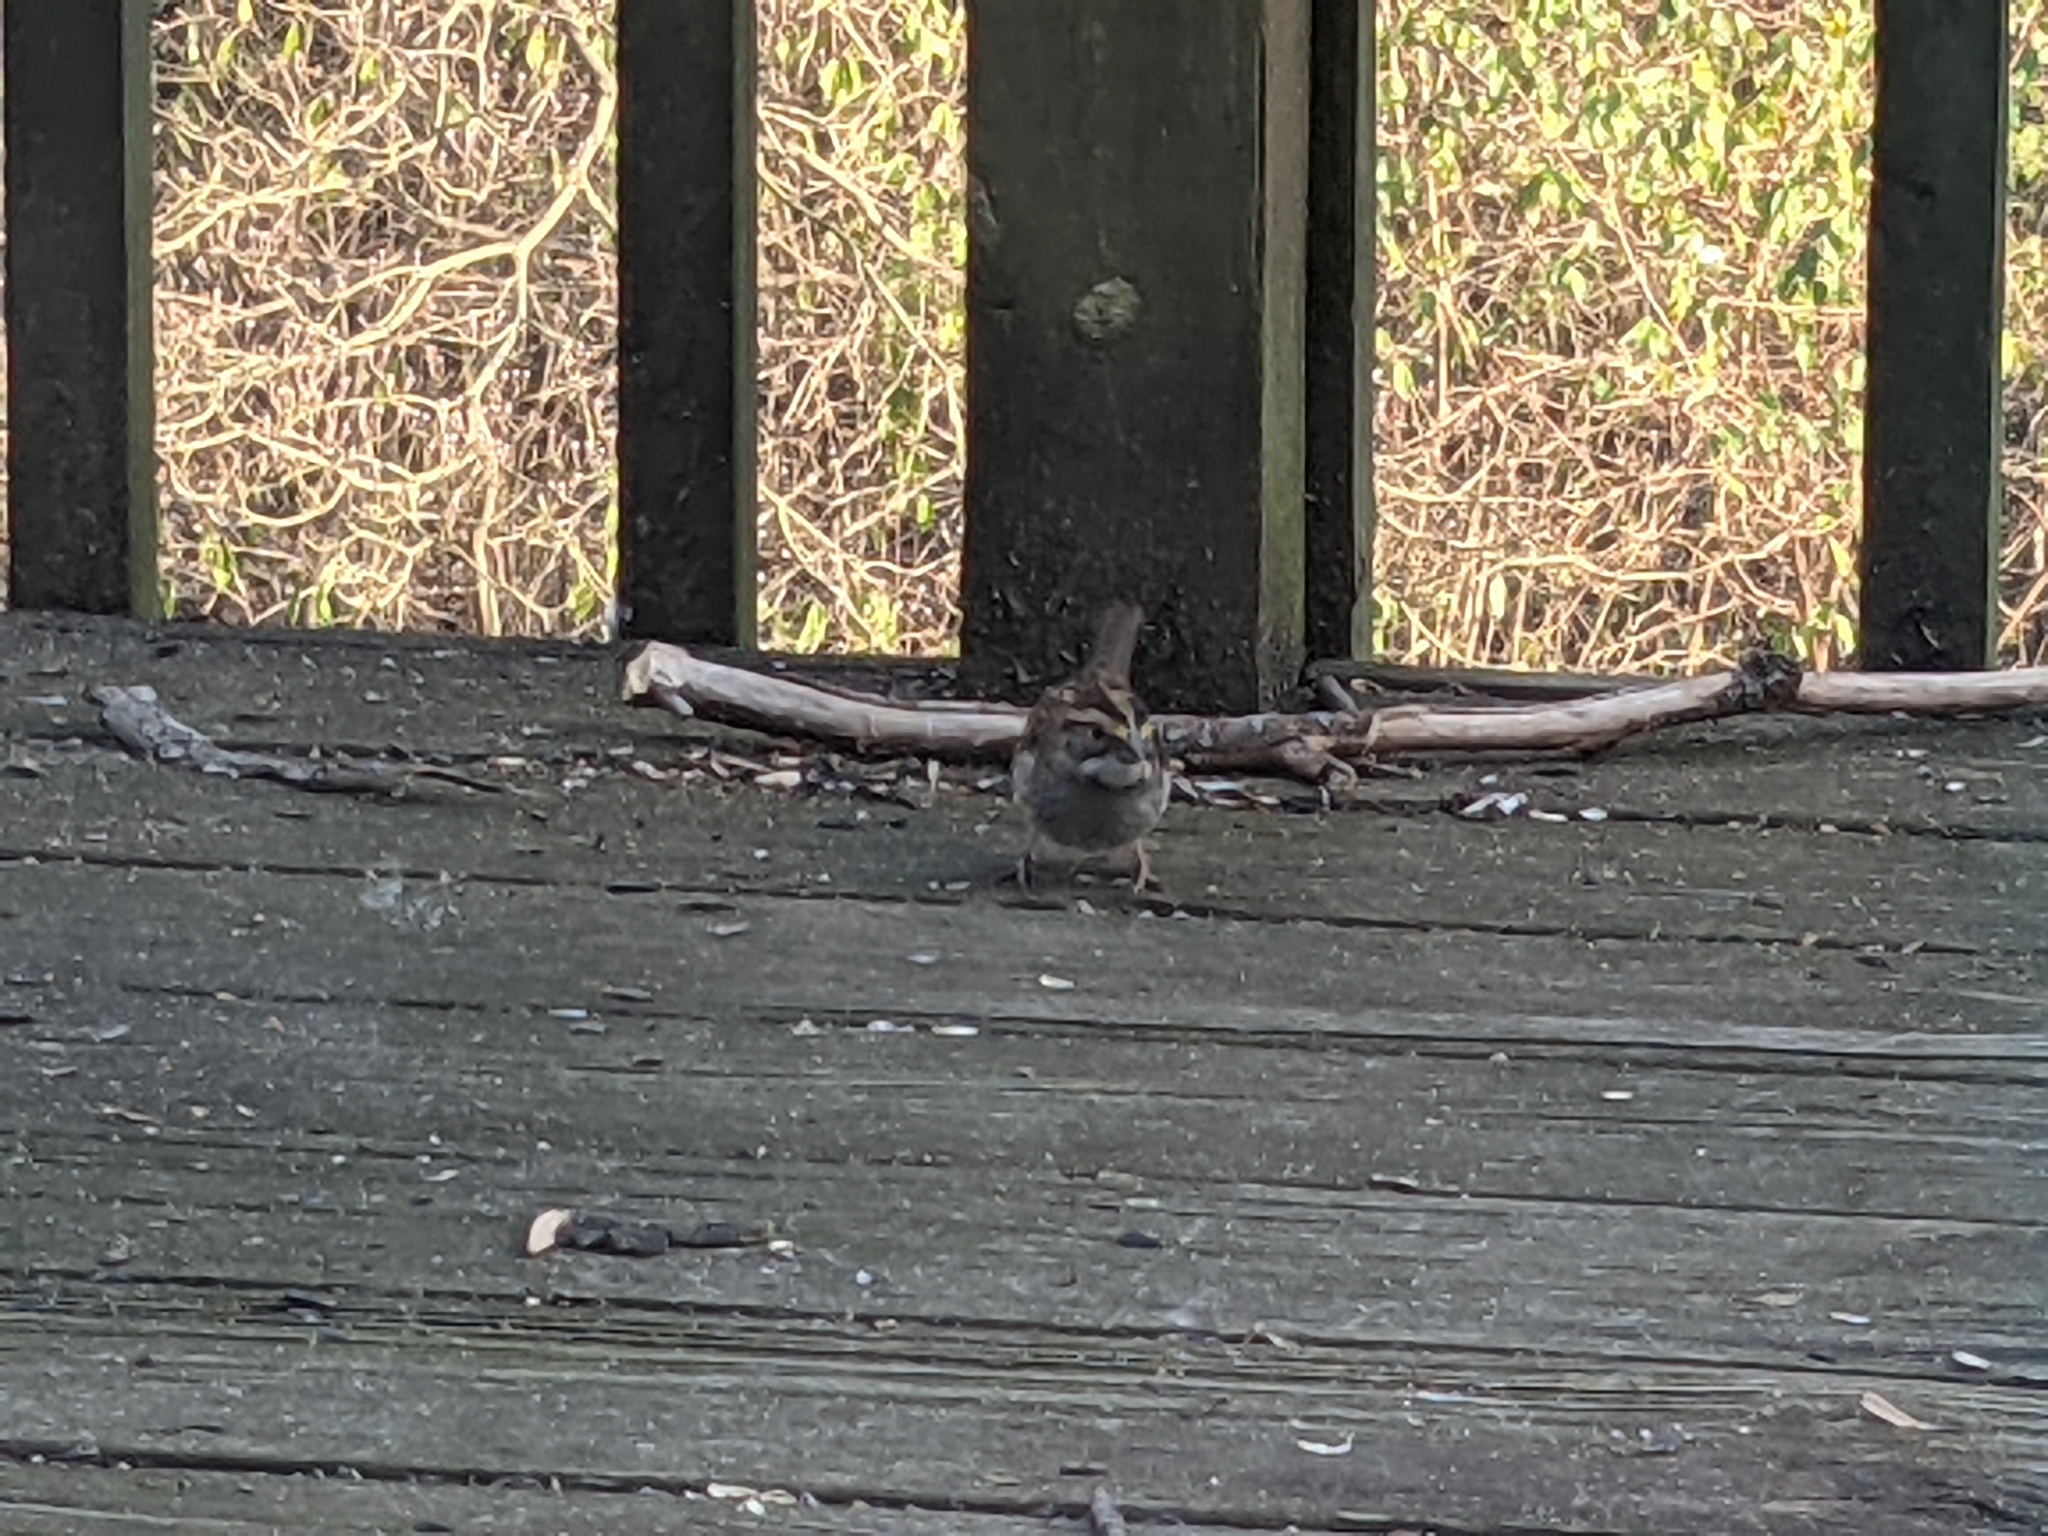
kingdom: Animalia
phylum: Chordata
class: Aves
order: Passeriformes
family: Passerellidae
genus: Zonotrichia
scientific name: Zonotrichia albicollis
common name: White-throated sparrow
